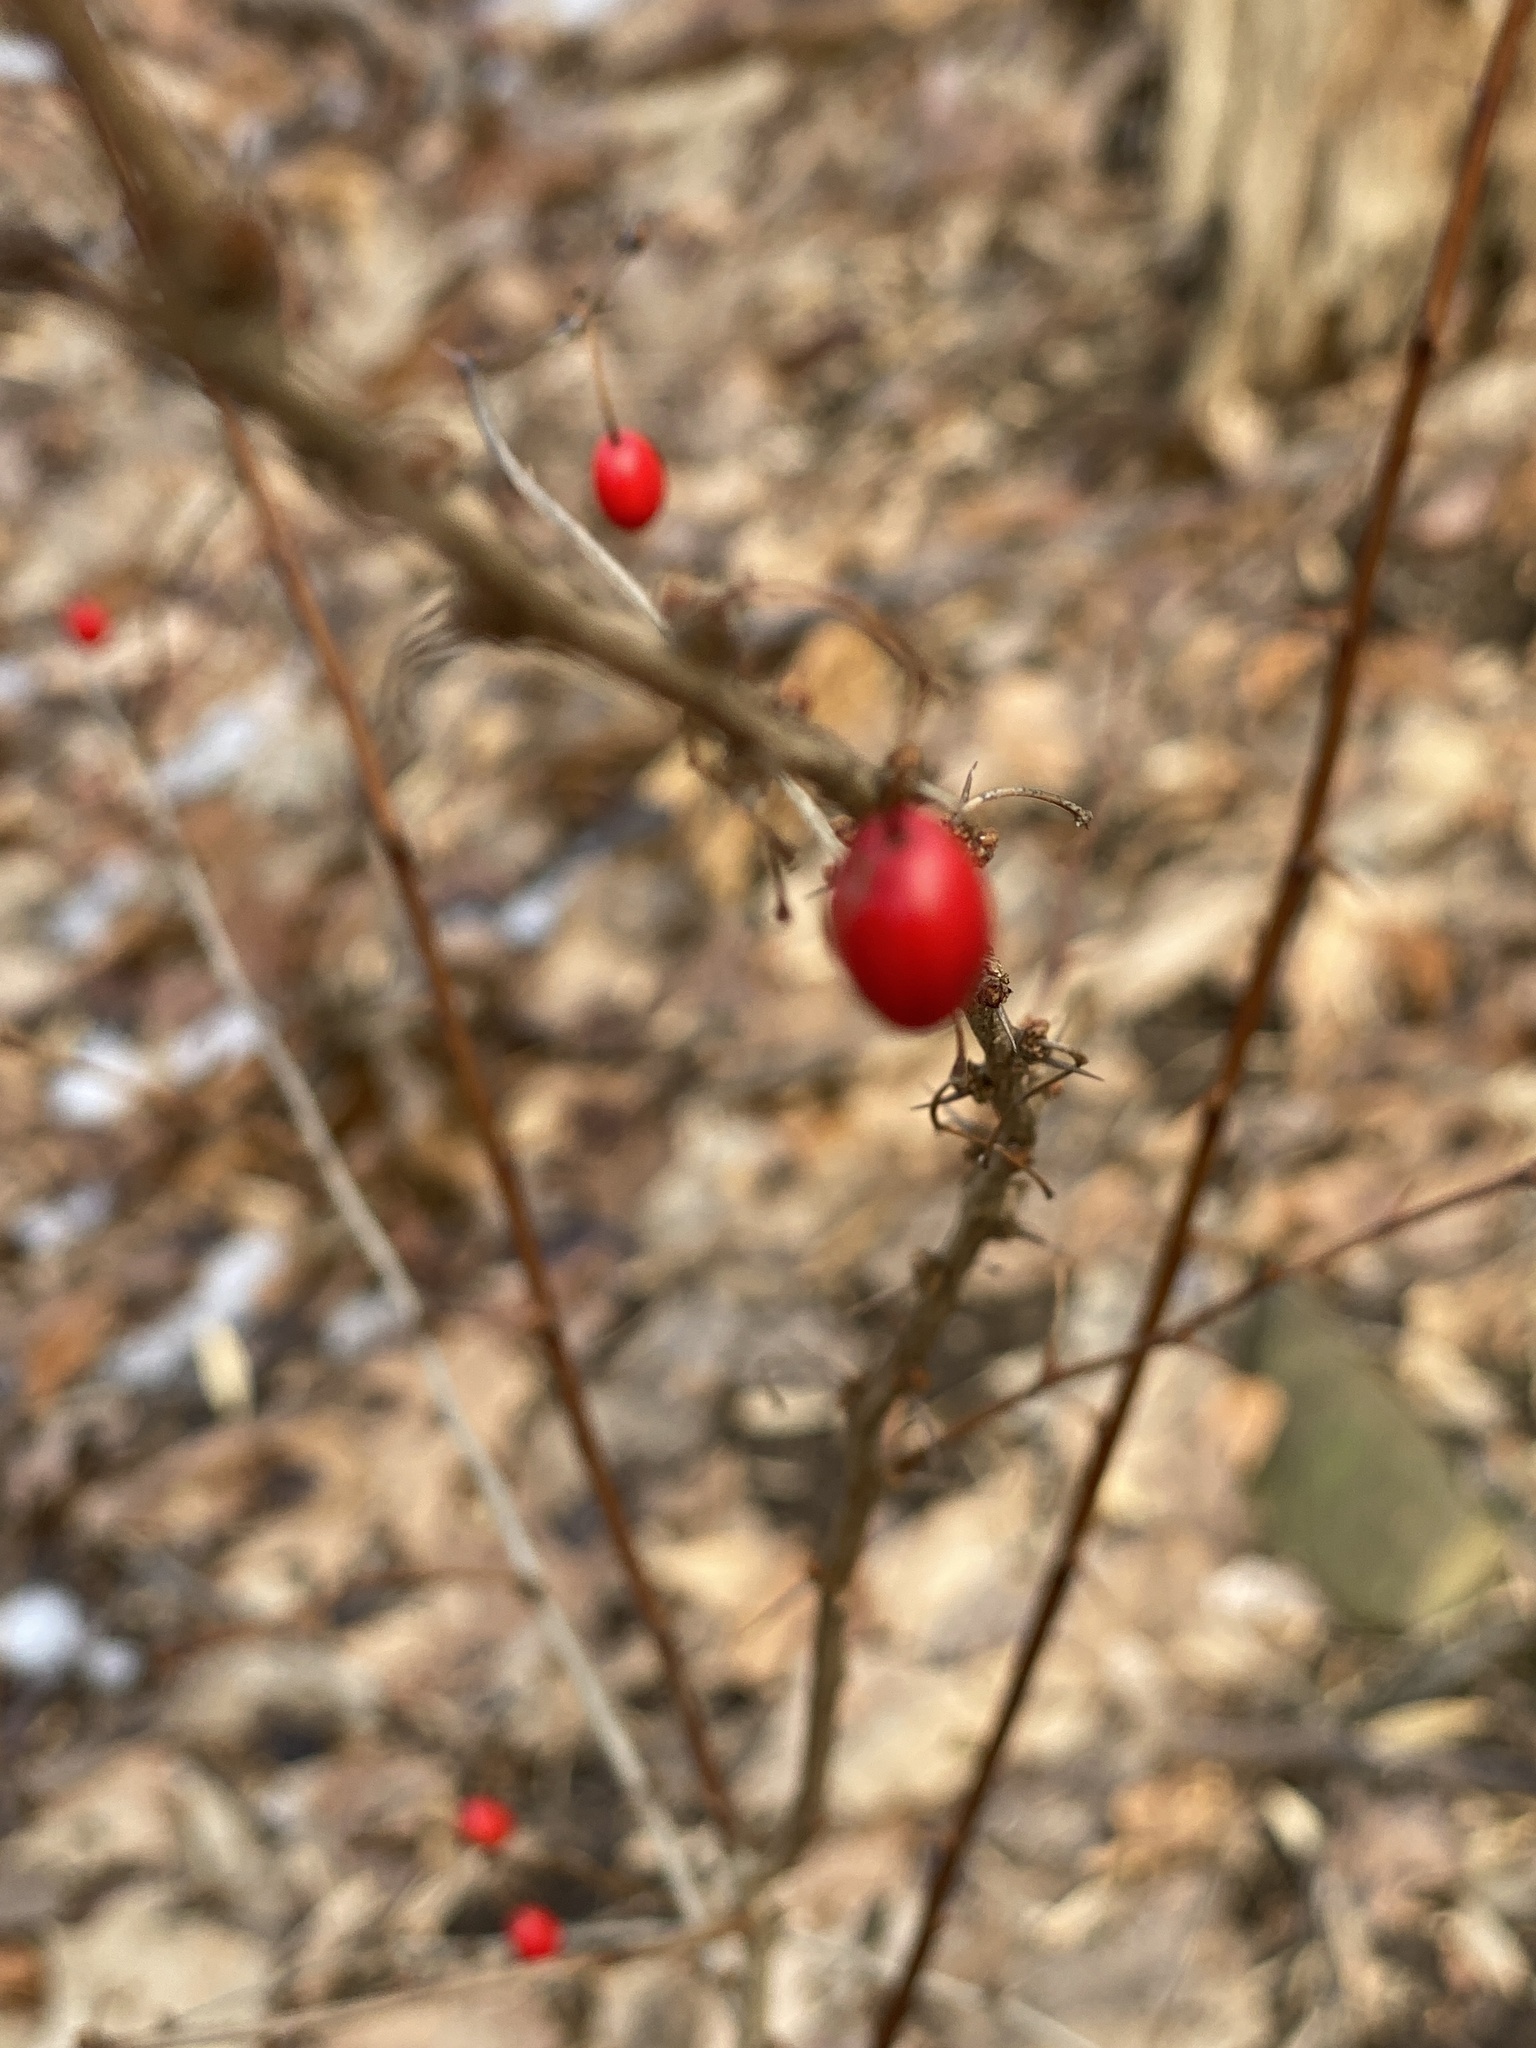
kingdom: Plantae
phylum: Tracheophyta
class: Magnoliopsida
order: Ranunculales
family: Berberidaceae
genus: Berberis
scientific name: Berberis thunbergii
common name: Japanese barberry
